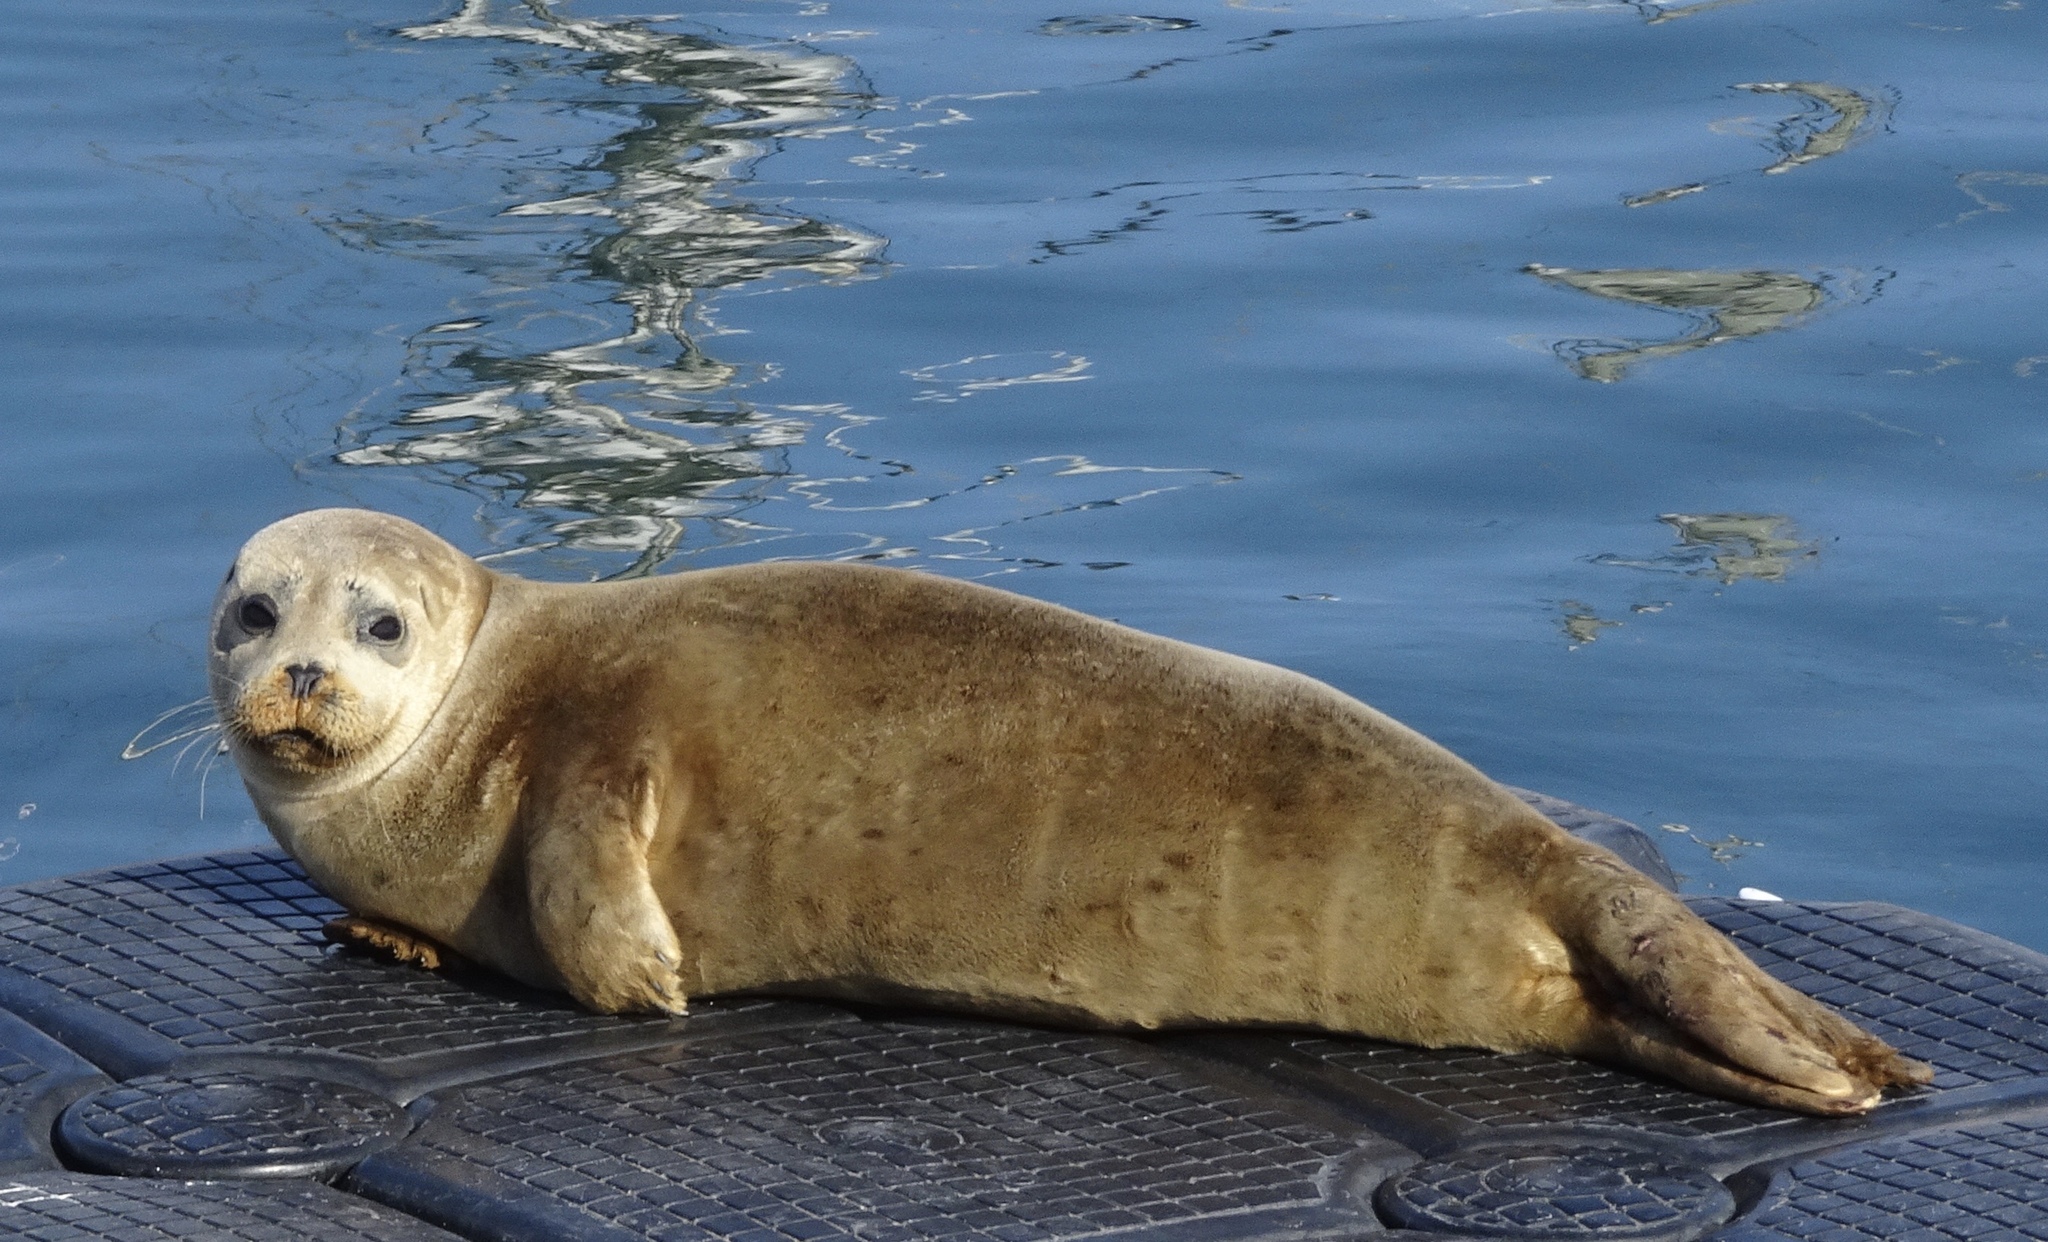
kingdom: Animalia
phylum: Chordata
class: Mammalia
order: Carnivora
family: Phocidae
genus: Phoca
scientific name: Phoca vitulina
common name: Harbor seal
